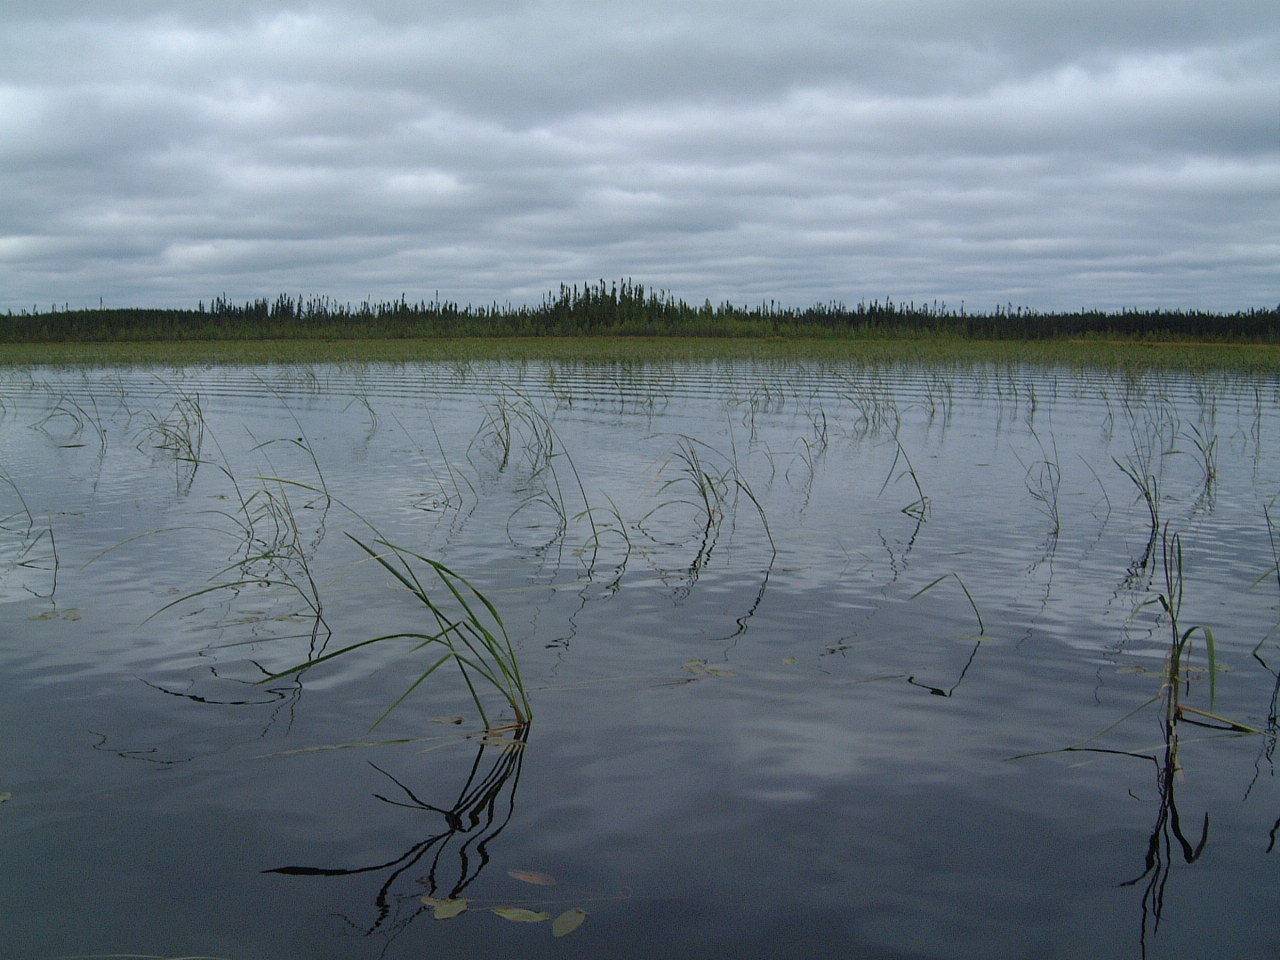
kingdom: Plantae
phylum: Tracheophyta
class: Liliopsida
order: Poales
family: Poaceae
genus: Zizania
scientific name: Zizania palustris
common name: Northern wild rice
